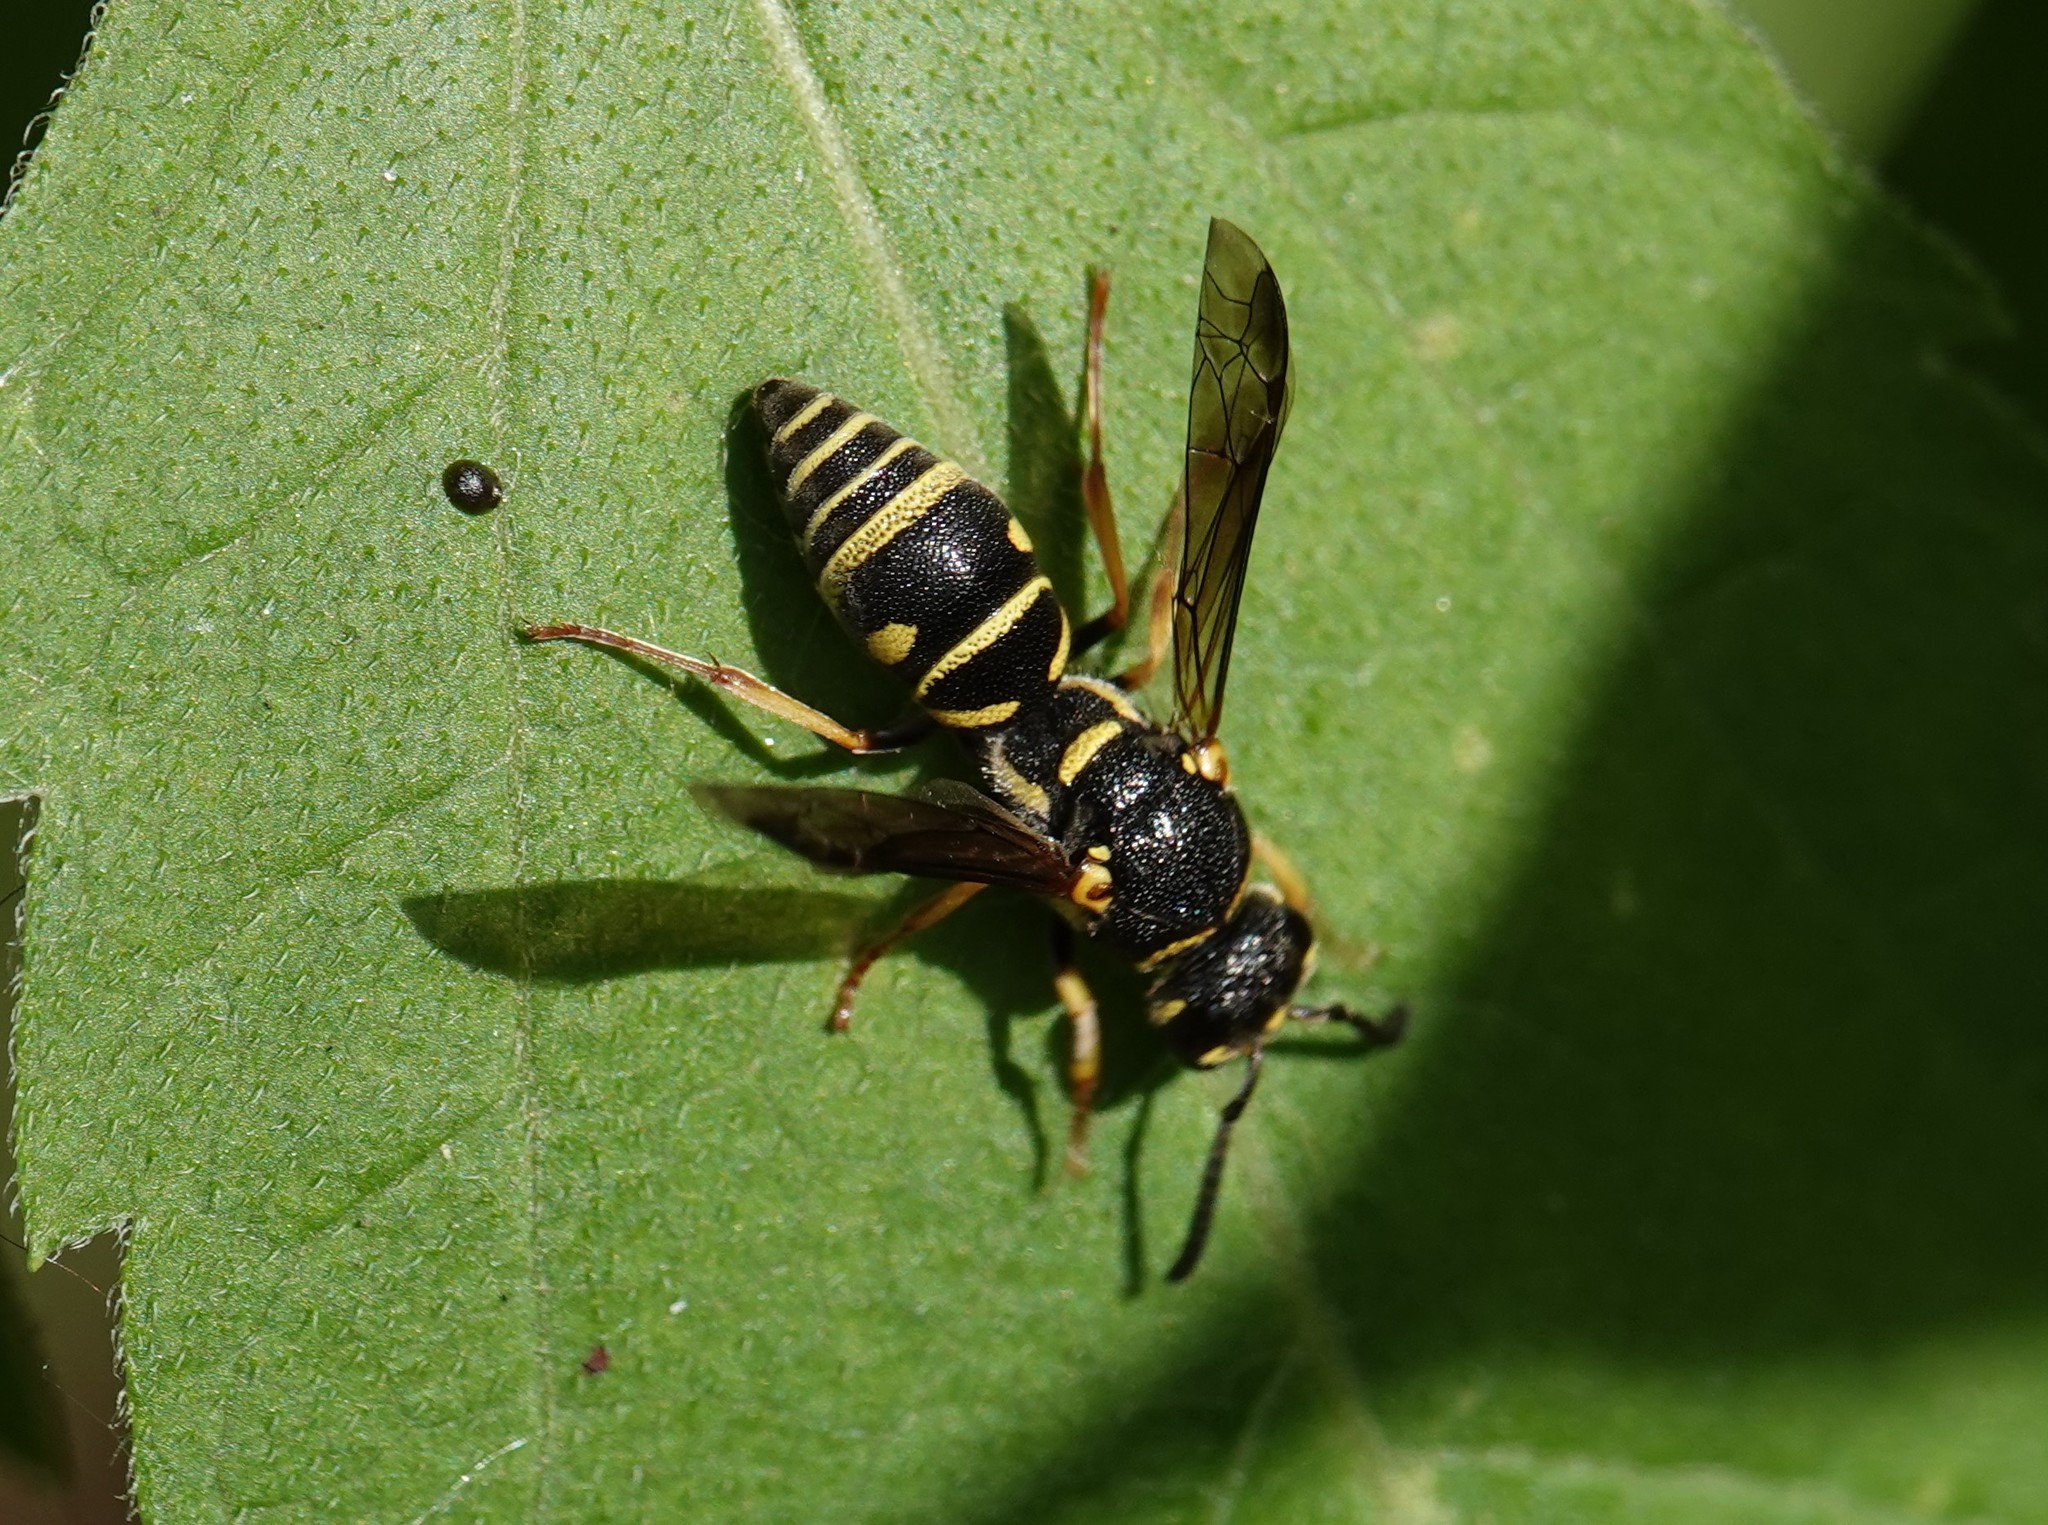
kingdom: Animalia
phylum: Arthropoda
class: Insecta
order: Hymenoptera
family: Eumenidae
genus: Parancistrocerus
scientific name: Parancistrocerus leionotus
